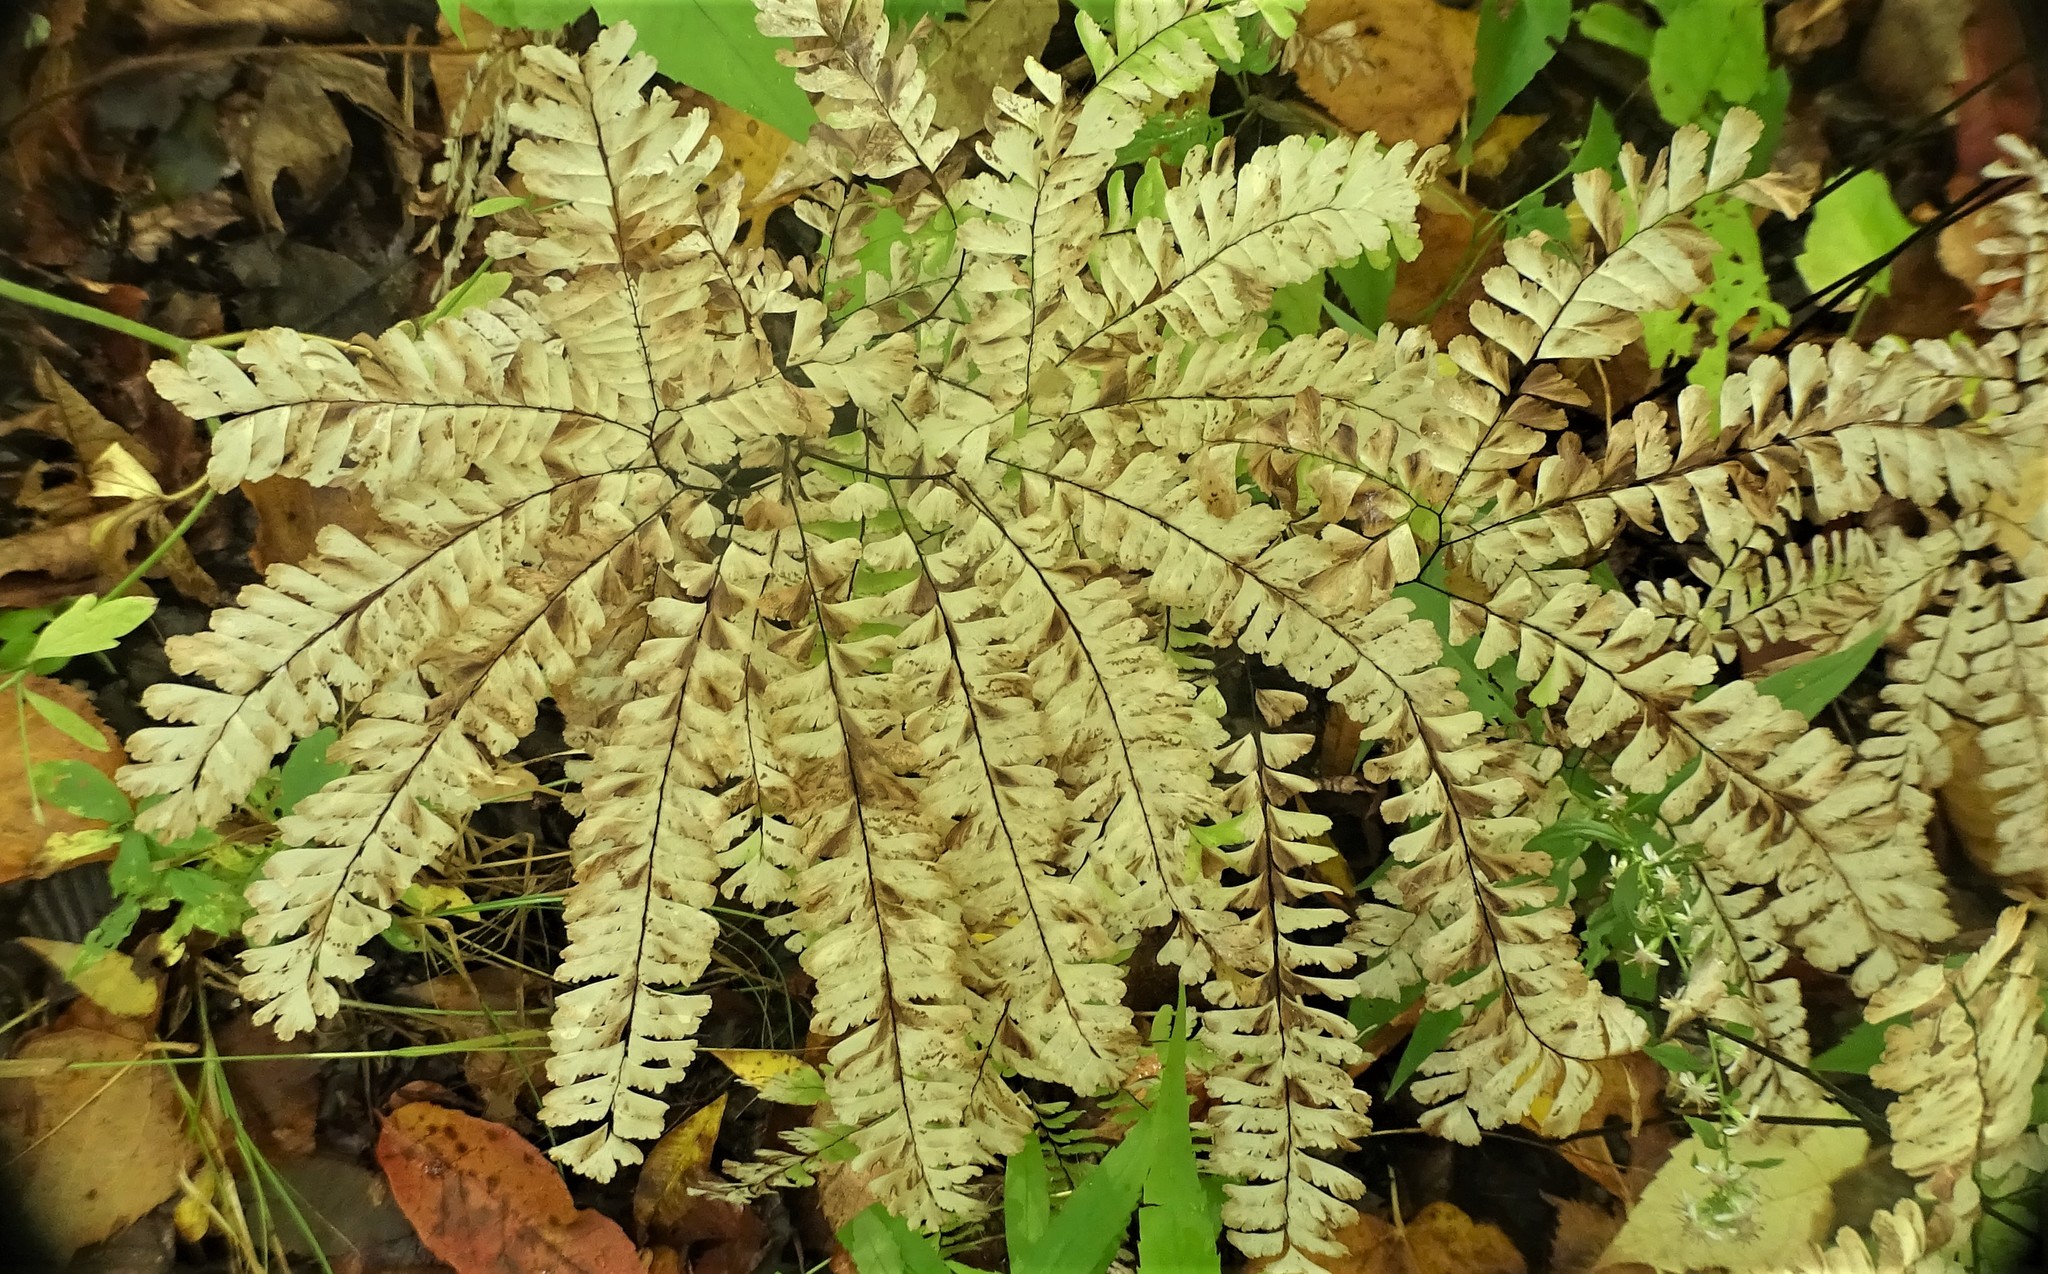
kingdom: Plantae
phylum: Tracheophyta
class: Polypodiopsida
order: Polypodiales
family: Pteridaceae
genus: Adiantum
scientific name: Adiantum pedatum
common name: Five-finger fern
